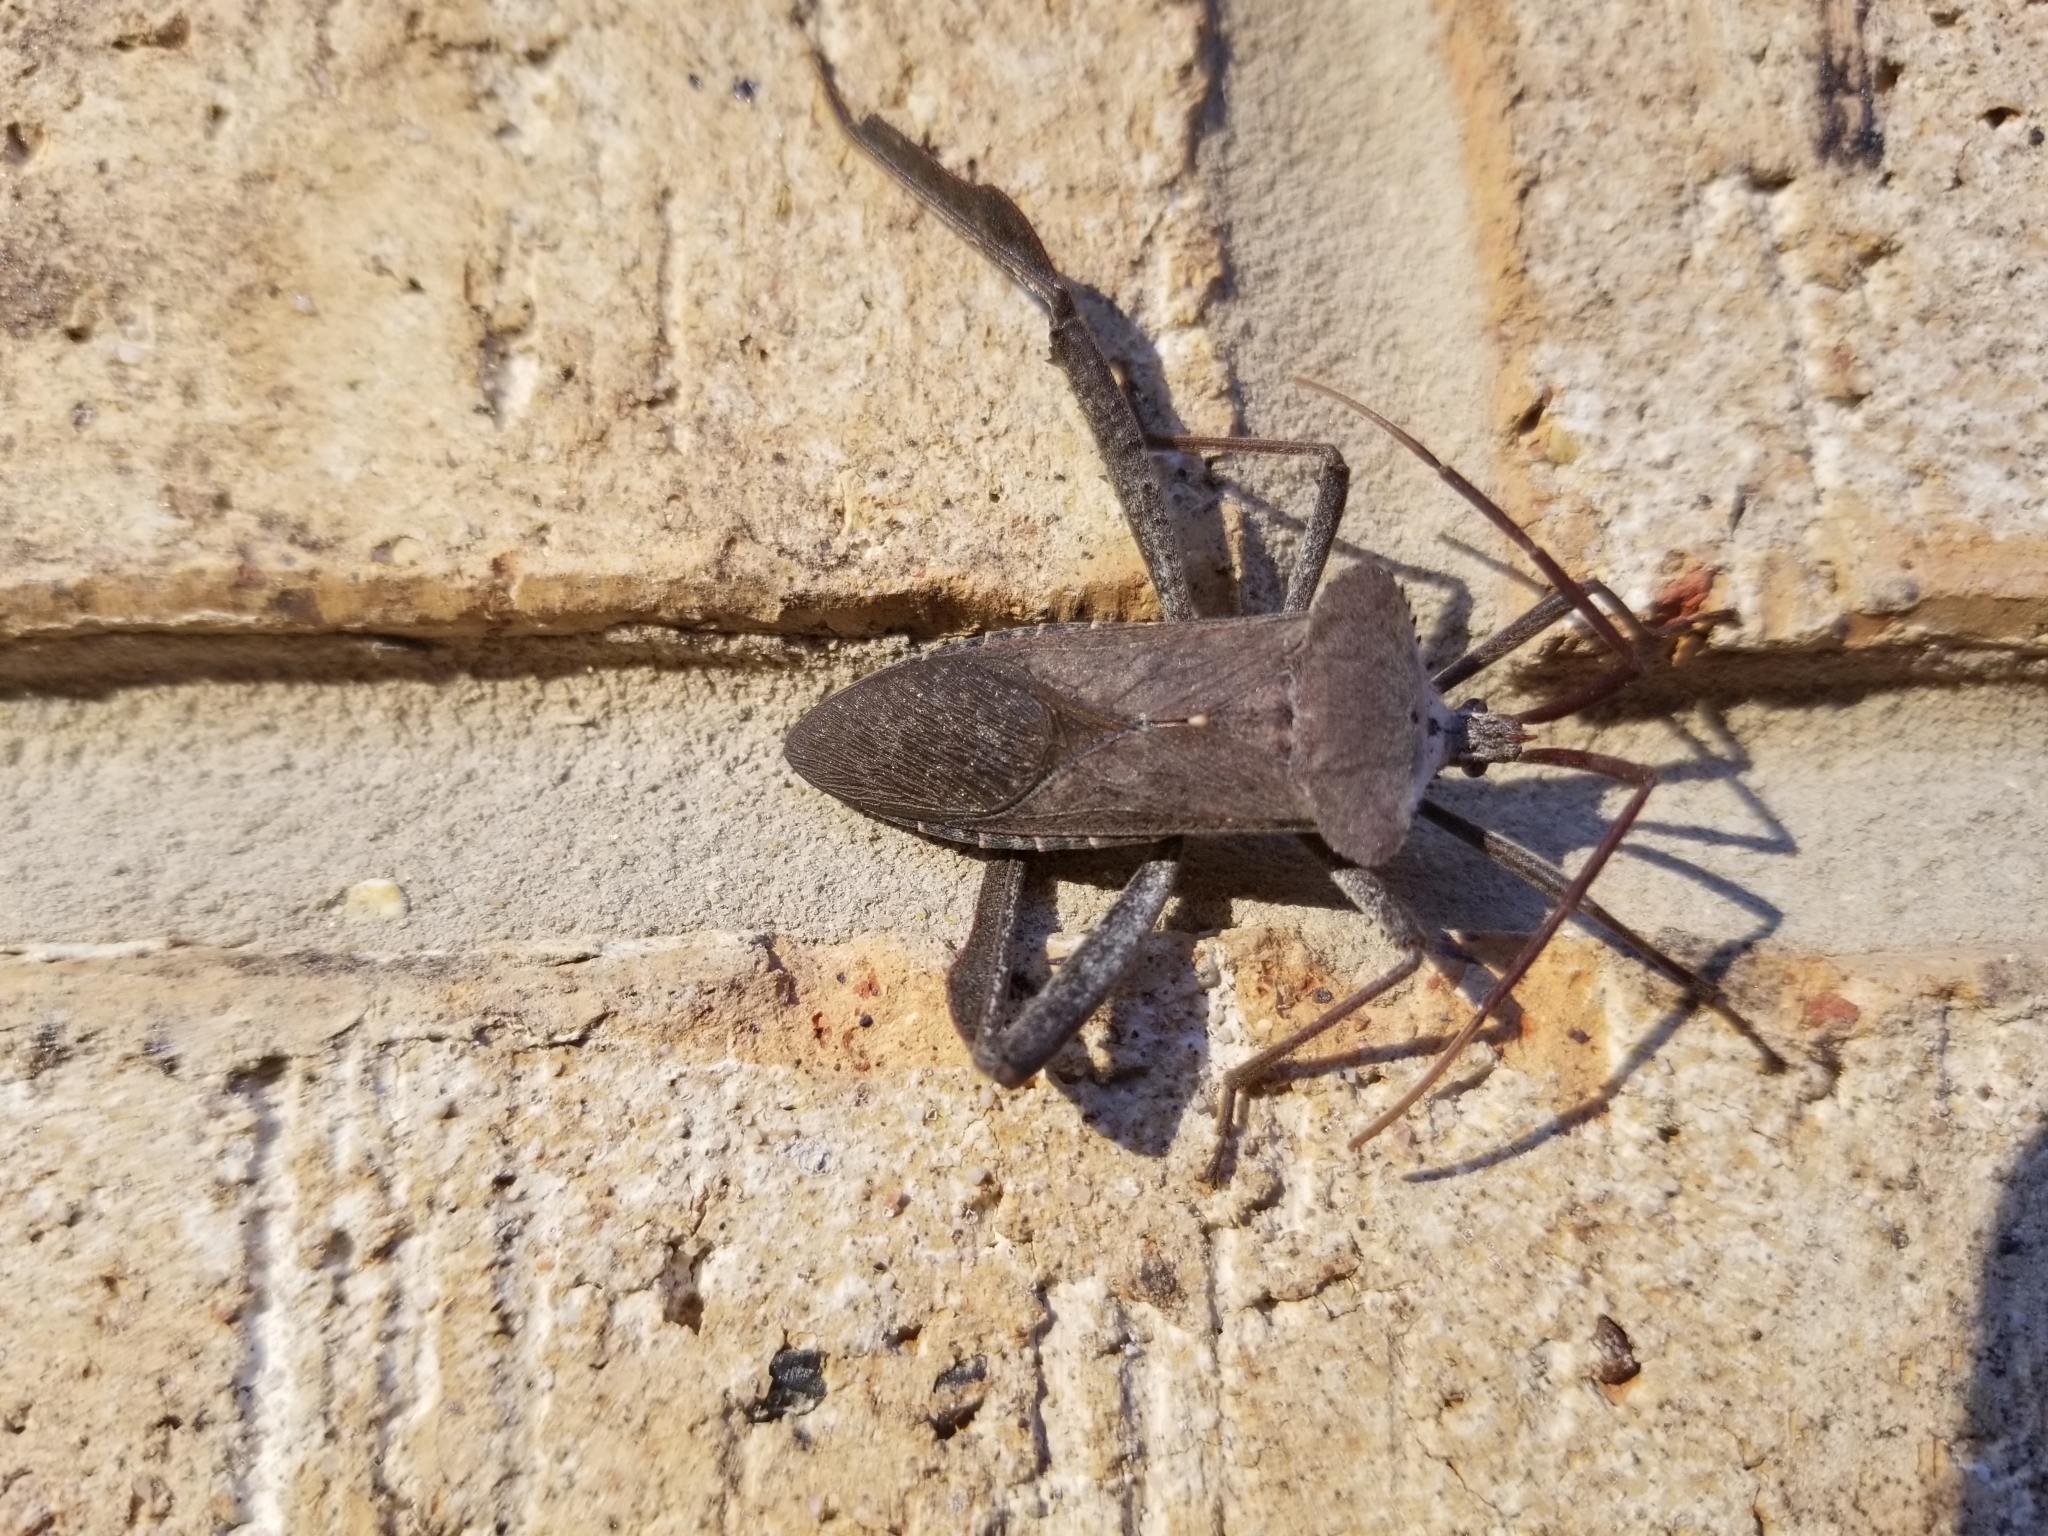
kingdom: Animalia
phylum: Arthropoda
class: Insecta
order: Hemiptera
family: Coreidae
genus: Acanthocephala
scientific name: Acanthocephala declivis
